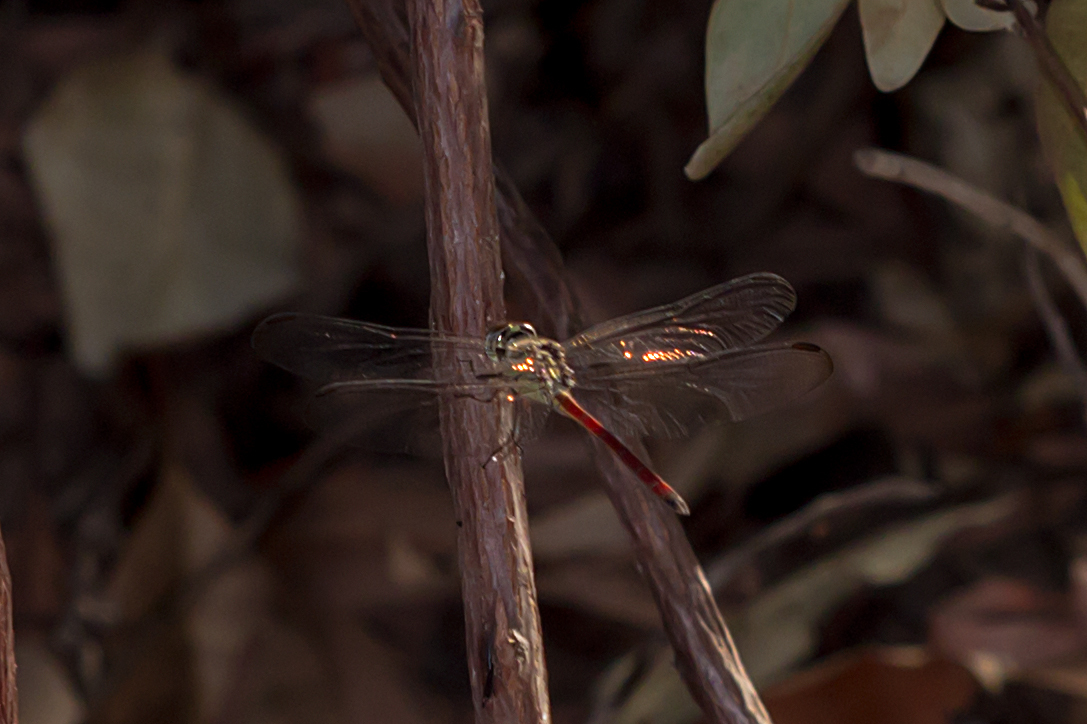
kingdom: Animalia
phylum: Arthropoda
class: Insecta
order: Odonata
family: Libellulidae
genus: Lathrecista
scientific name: Lathrecista asiatica
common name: Scarlet grenadier
